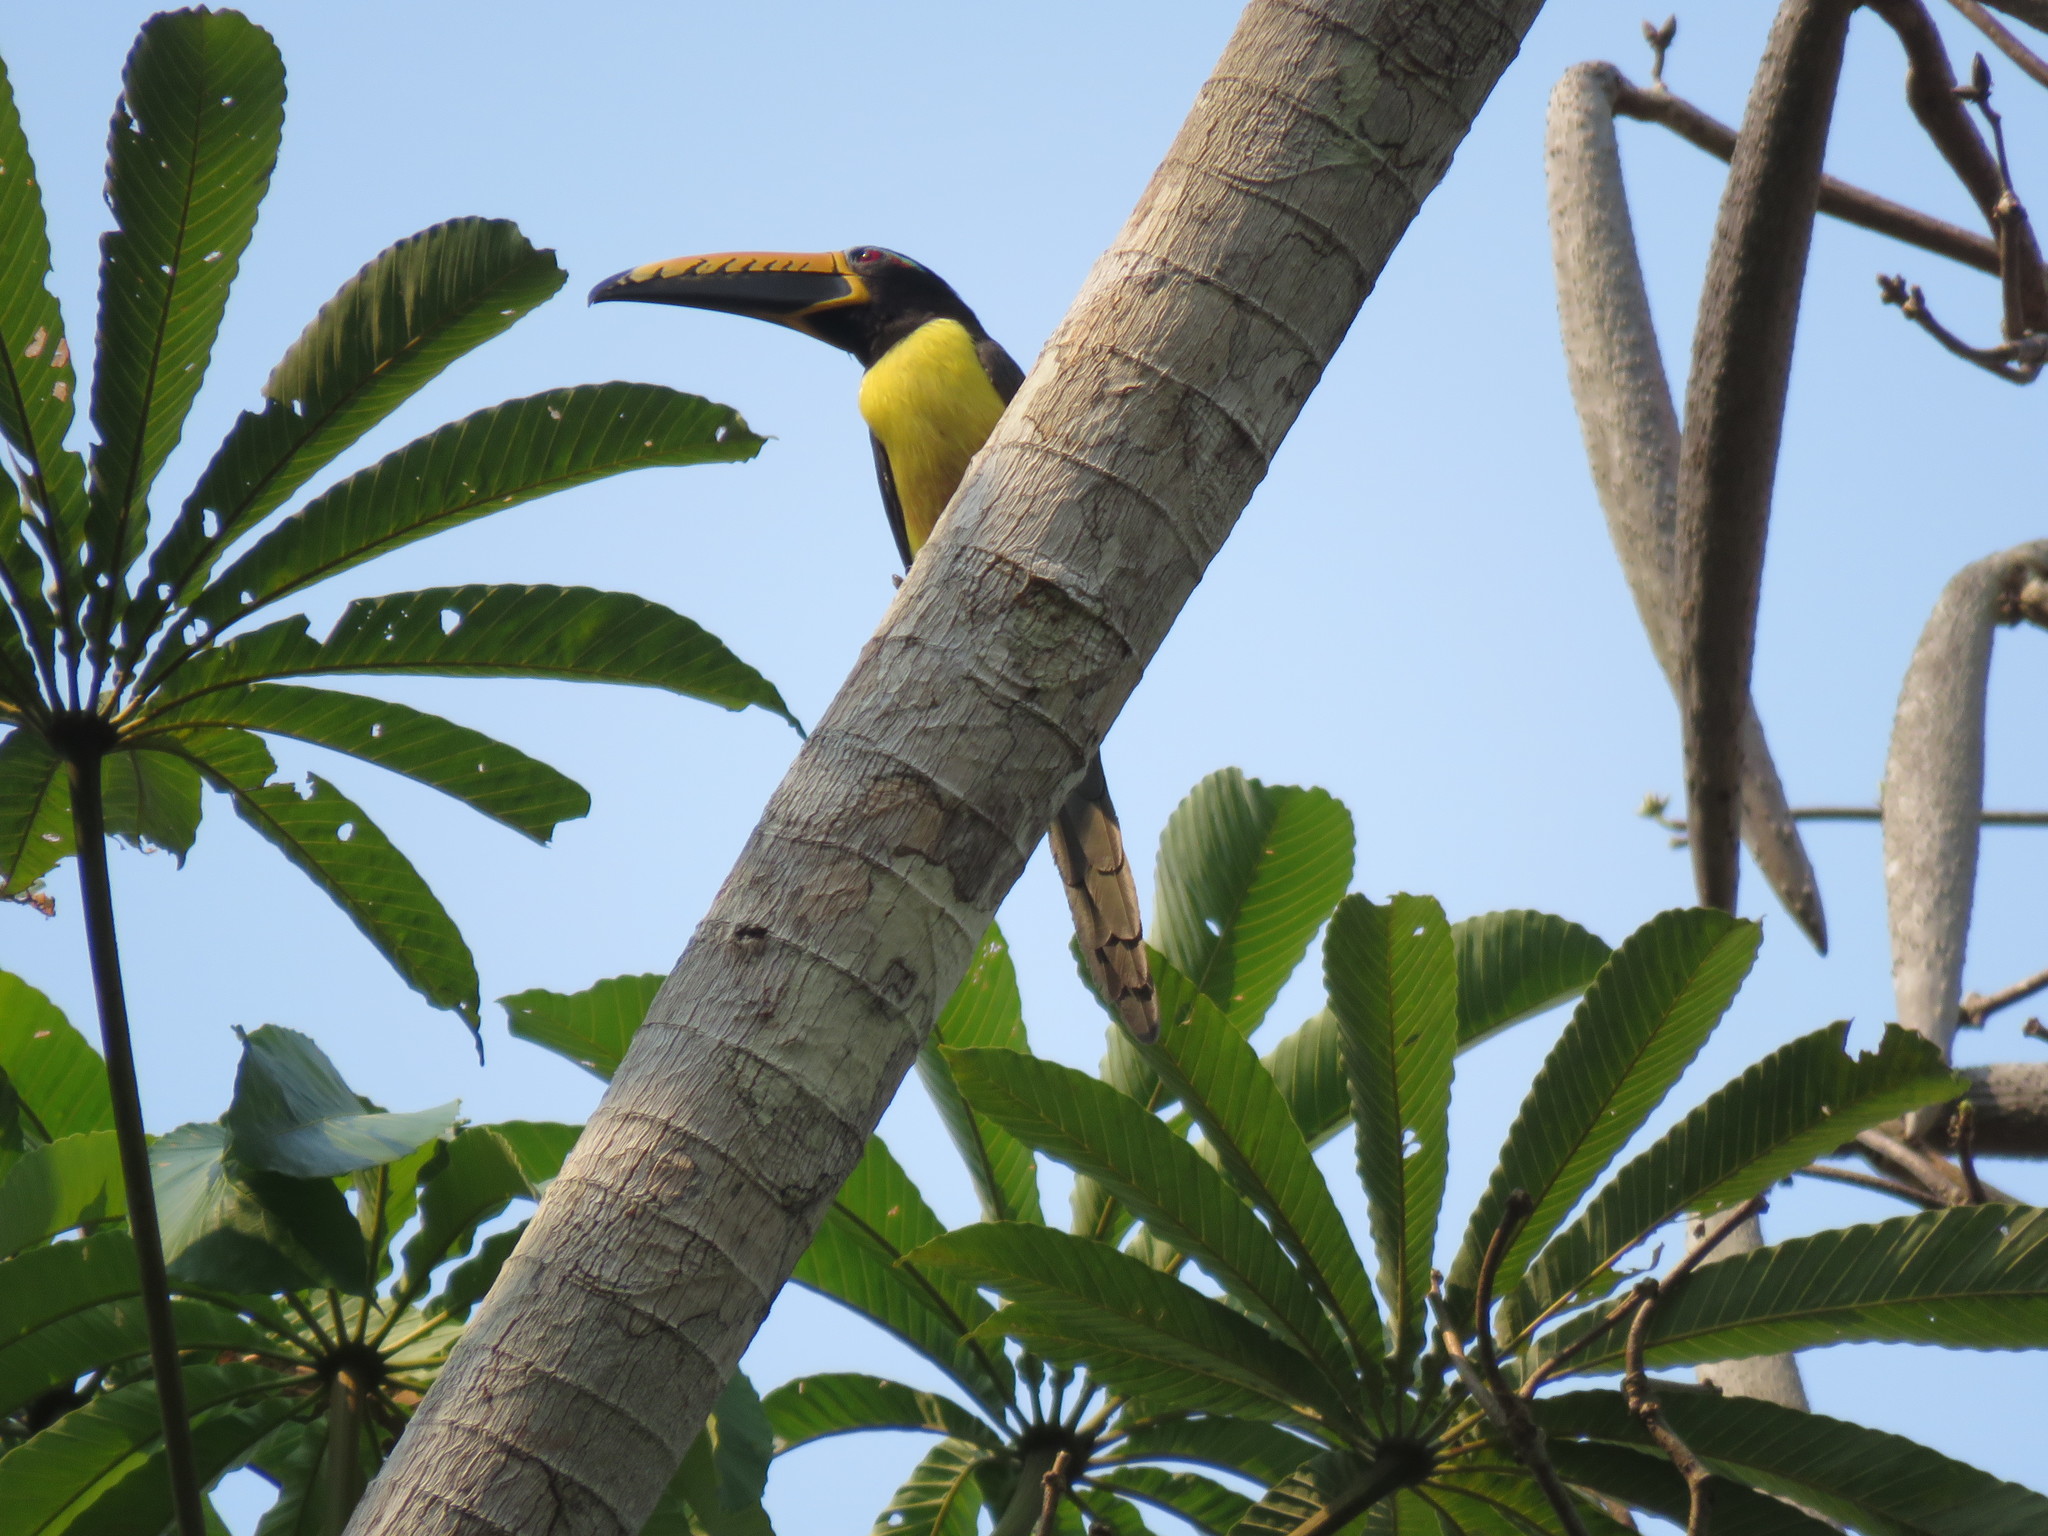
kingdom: Animalia
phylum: Chordata
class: Aves
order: Piciformes
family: Ramphastidae
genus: Pteroglossus
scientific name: Pteroglossus inscriptus
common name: Lettered aracari
